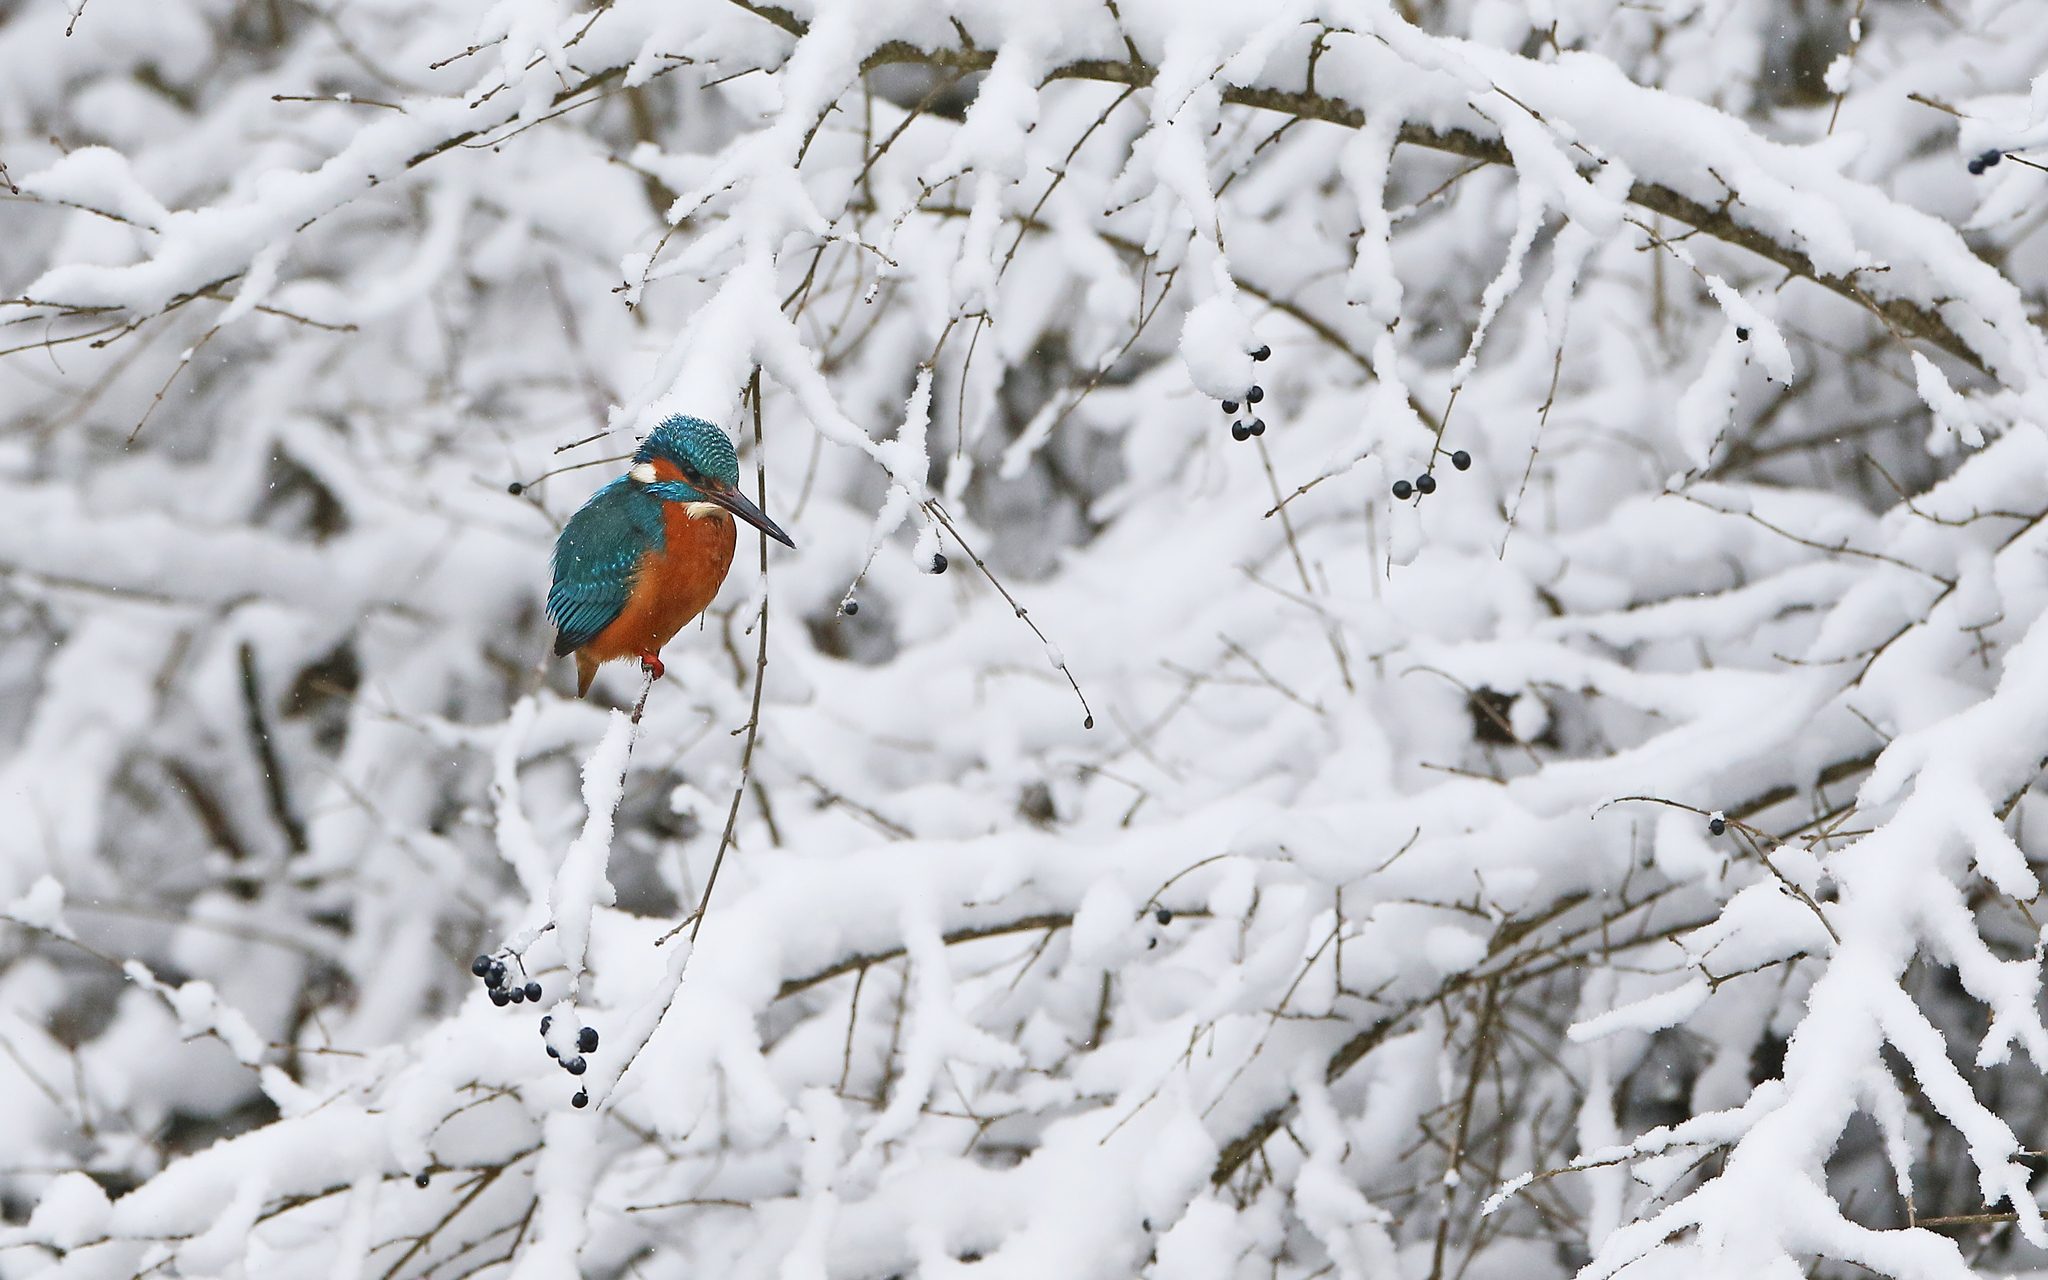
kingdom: Animalia
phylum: Chordata
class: Aves
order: Coraciiformes
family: Alcedinidae
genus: Alcedo
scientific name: Alcedo atthis
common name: Common kingfisher
